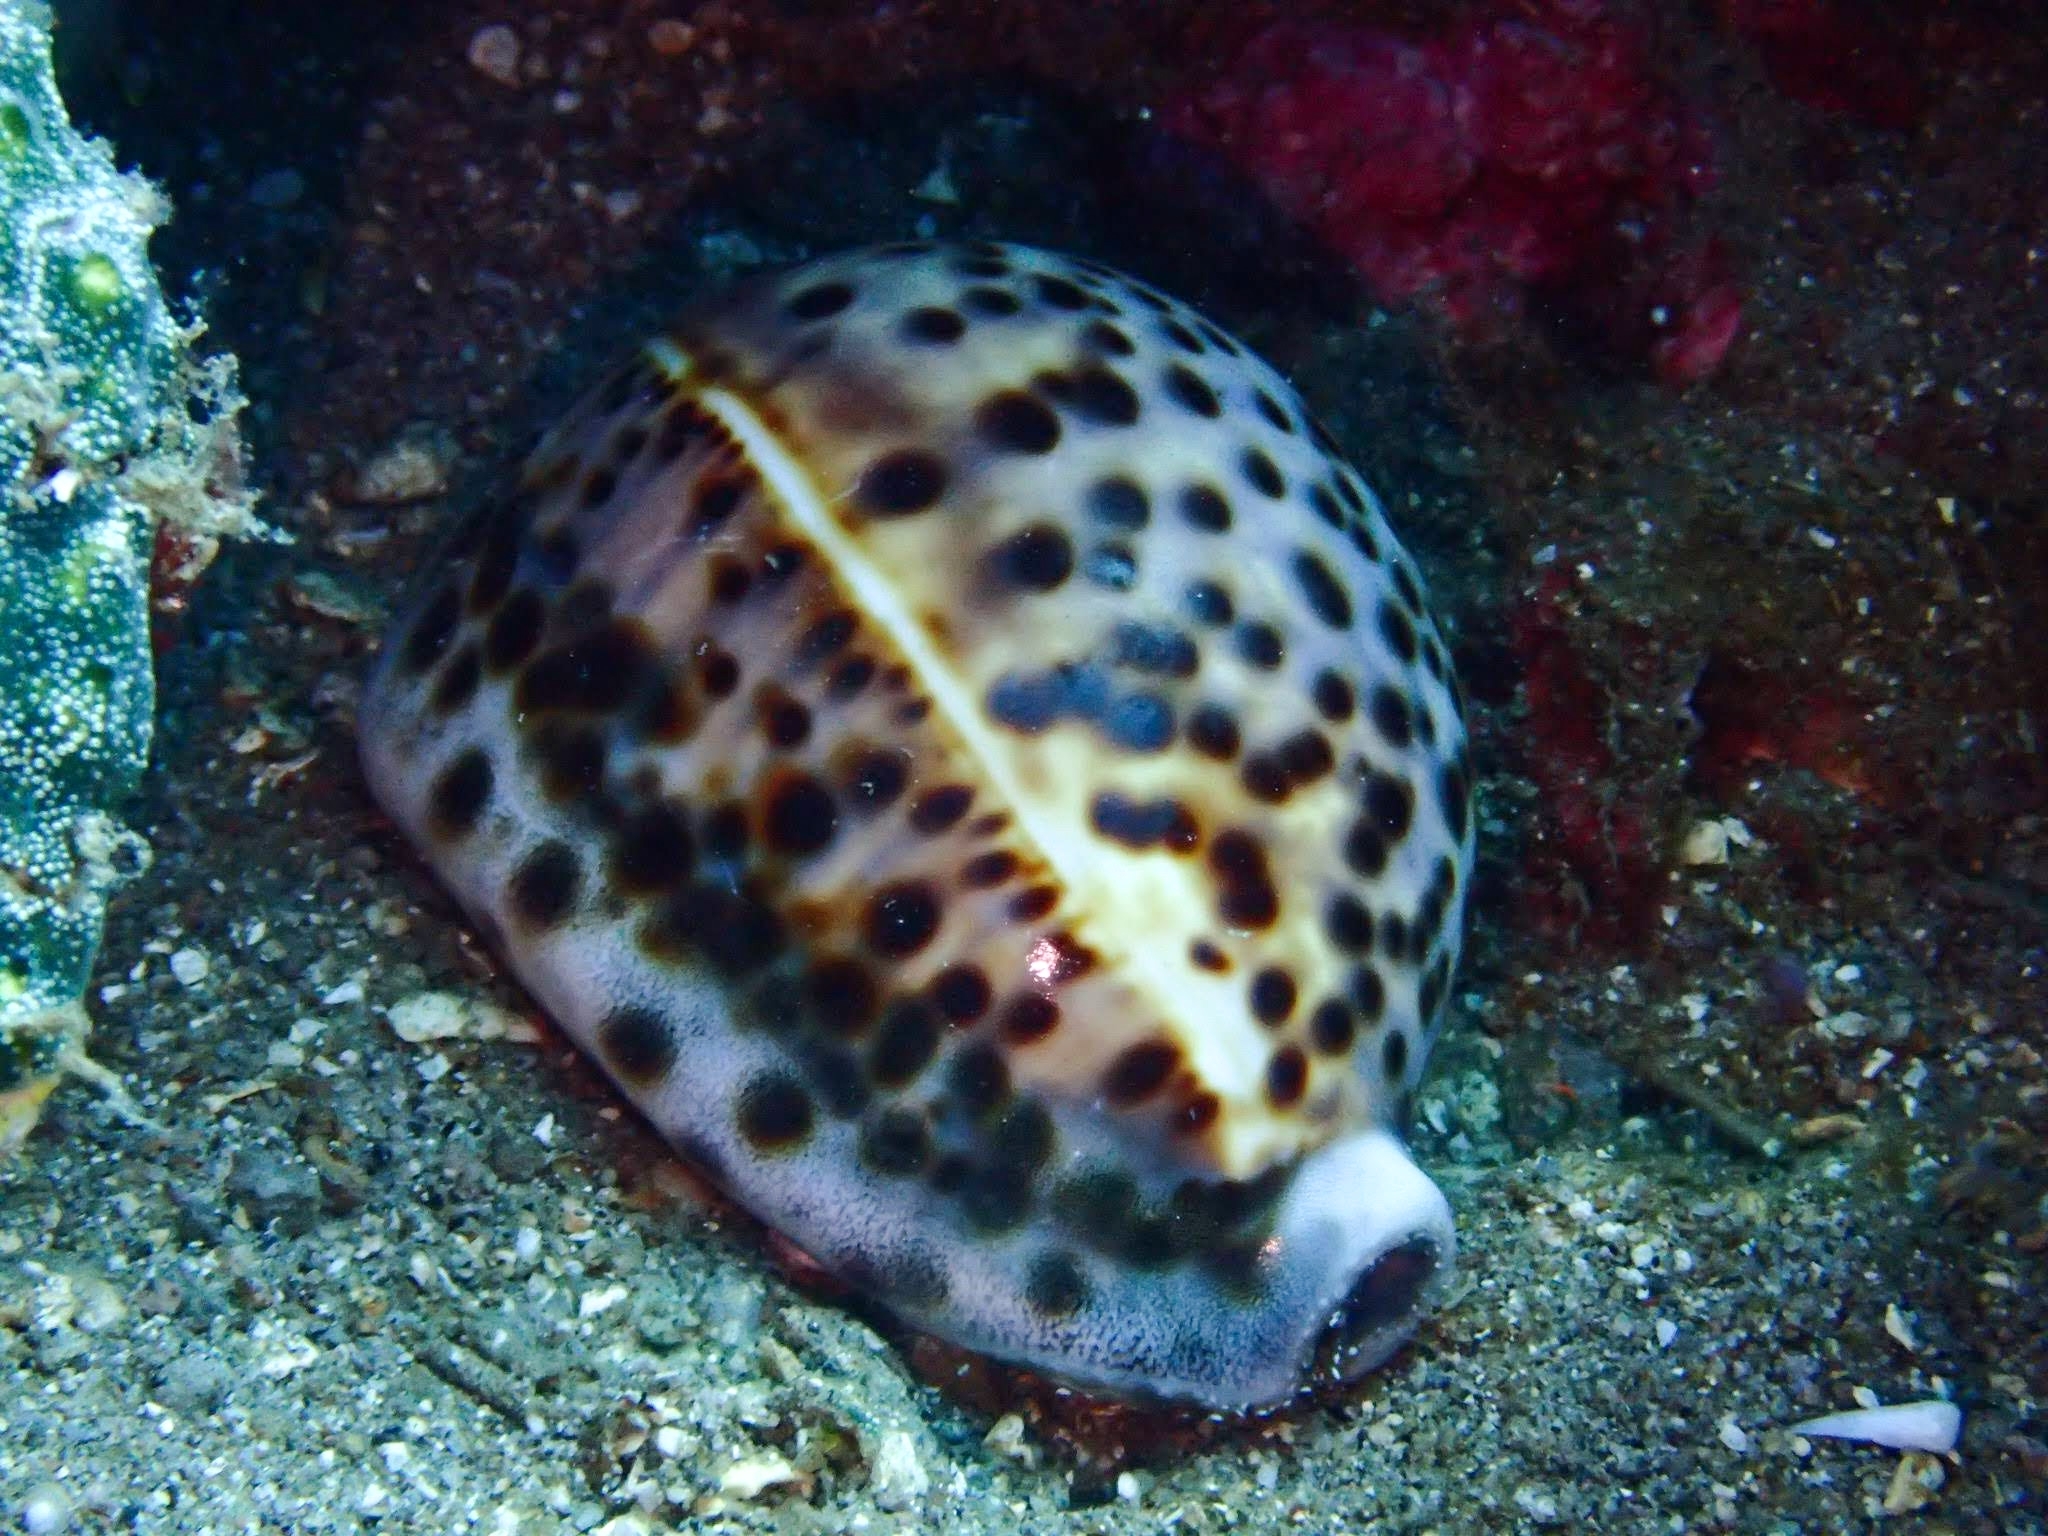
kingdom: Animalia
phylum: Mollusca
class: Gastropoda
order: Littorinimorpha
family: Cypraeidae
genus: Cypraea
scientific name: Cypraea tigris
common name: Tiger cowrie
